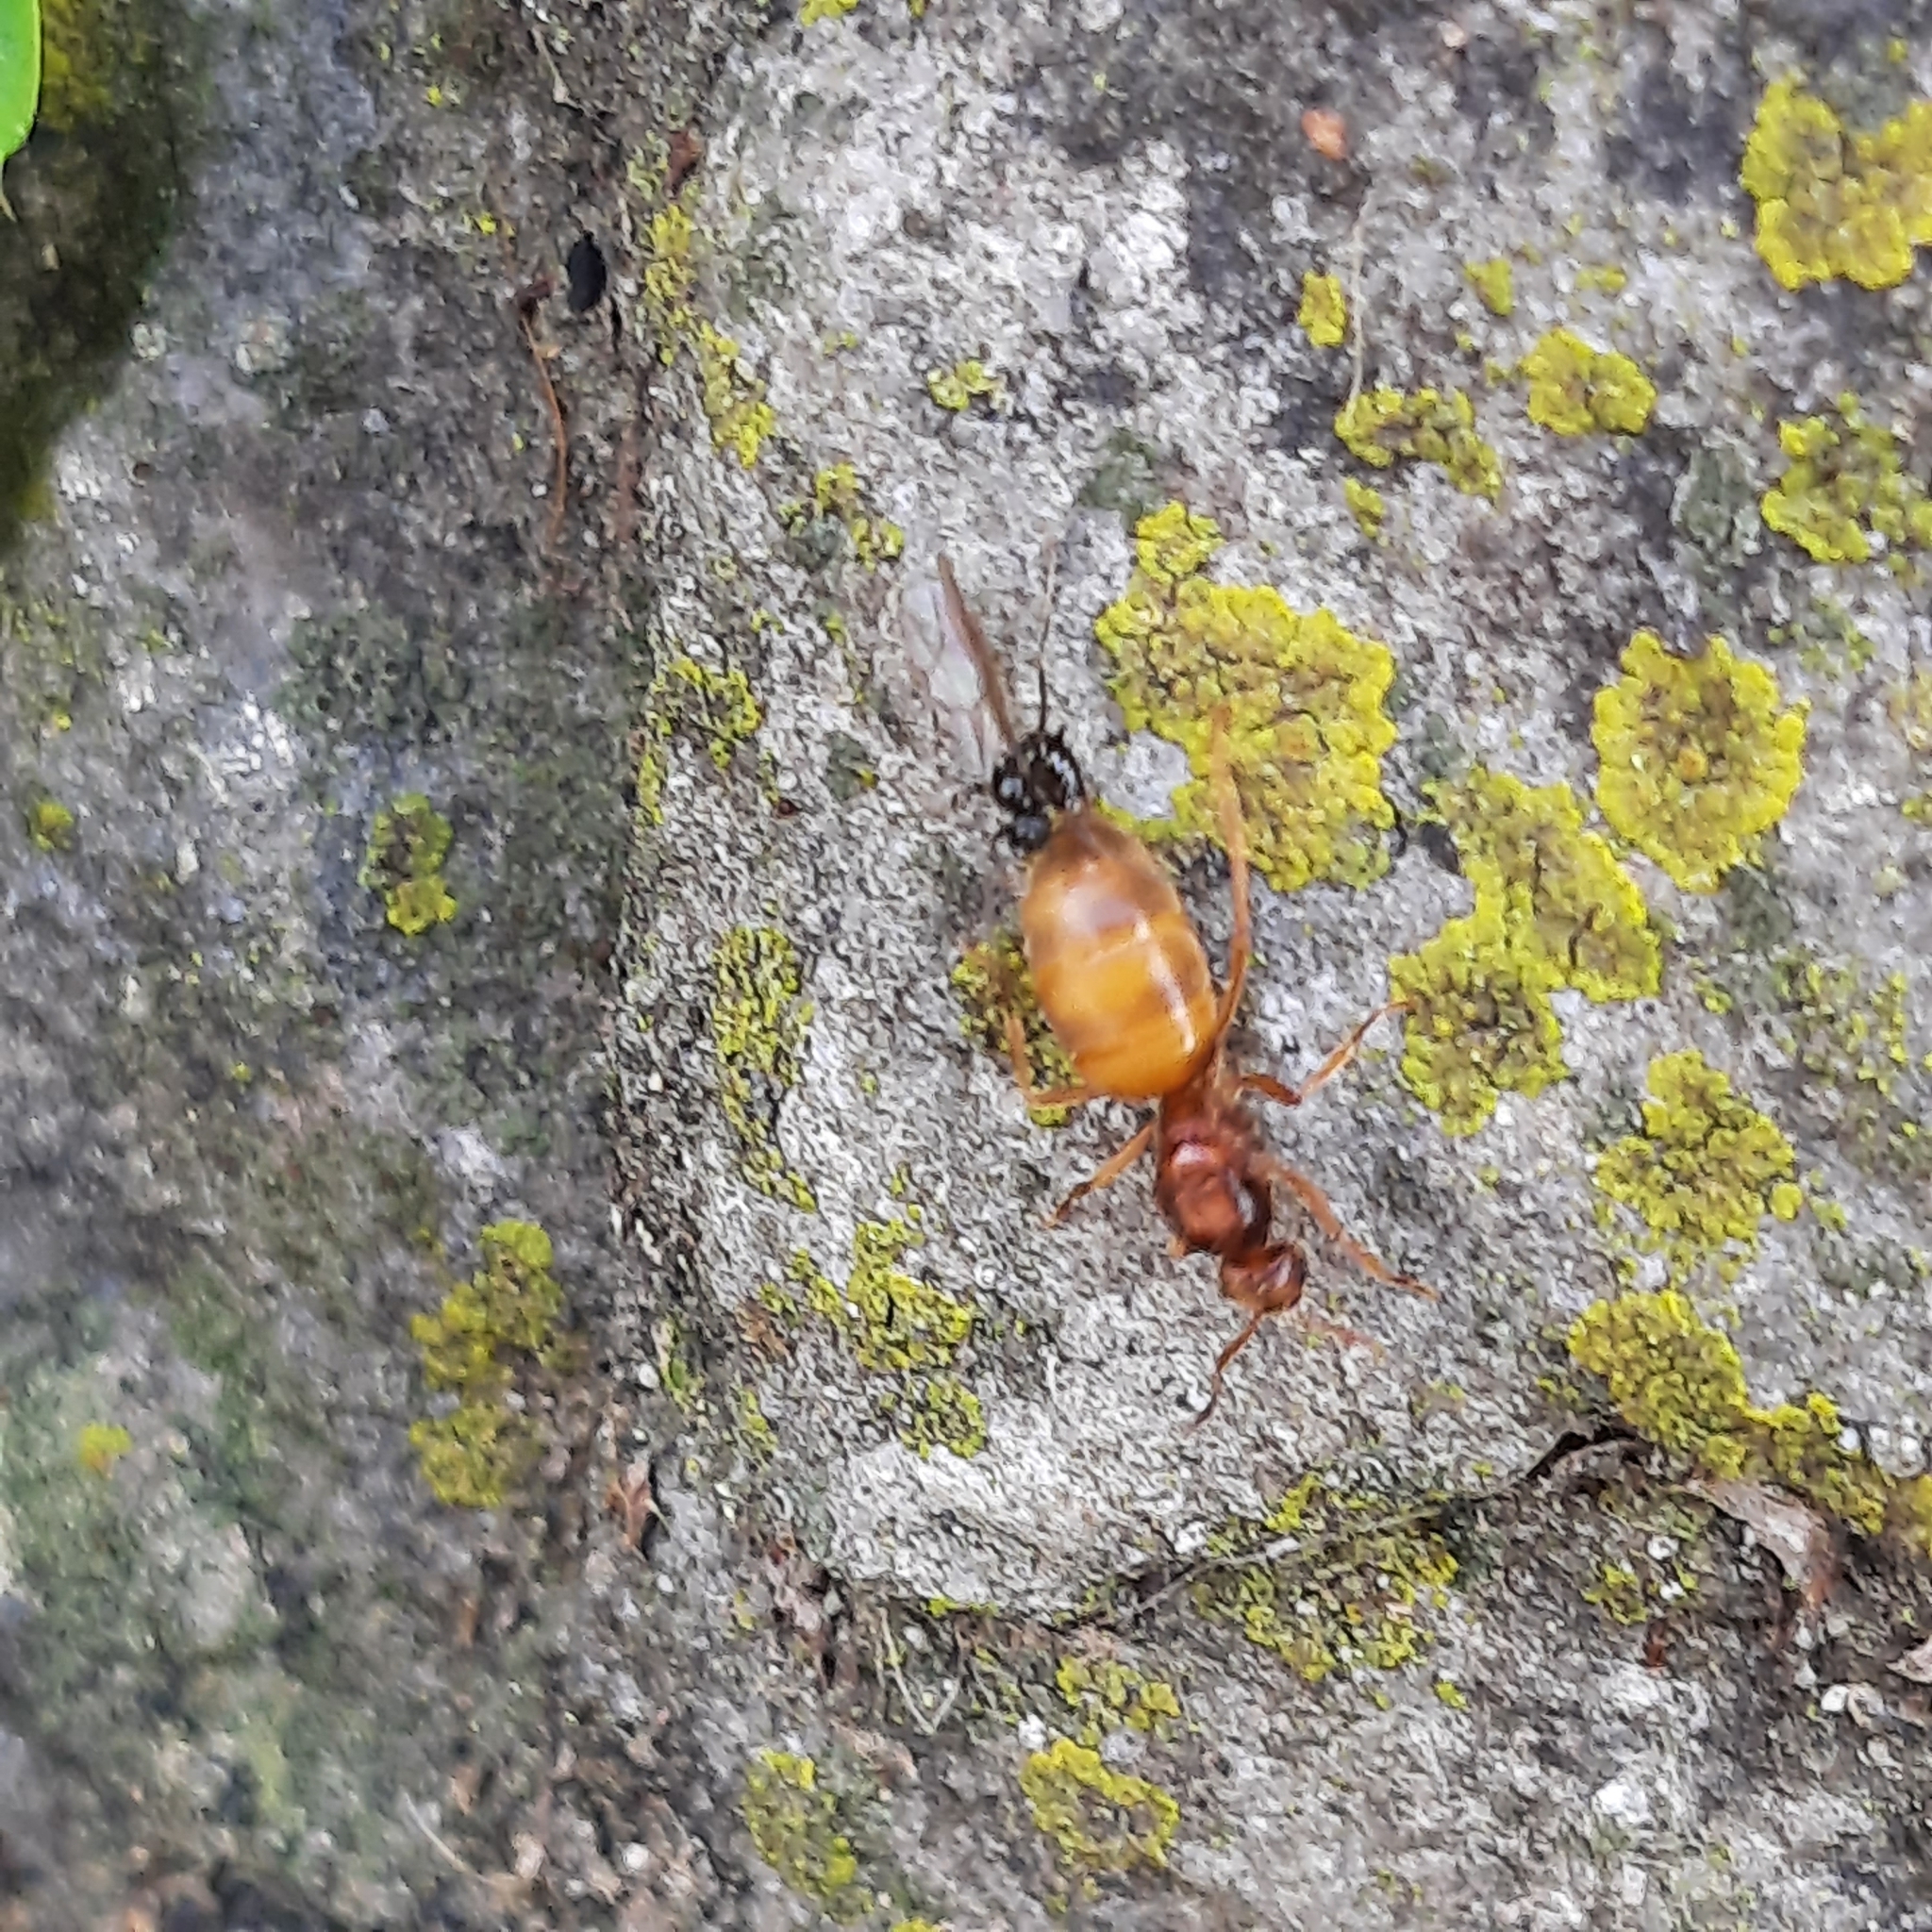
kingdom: Animalia
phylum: Arthropoda
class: Insecta
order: Hymenoptera
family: Formicidae
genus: Prenolepis
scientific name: Prenolepis nitens
